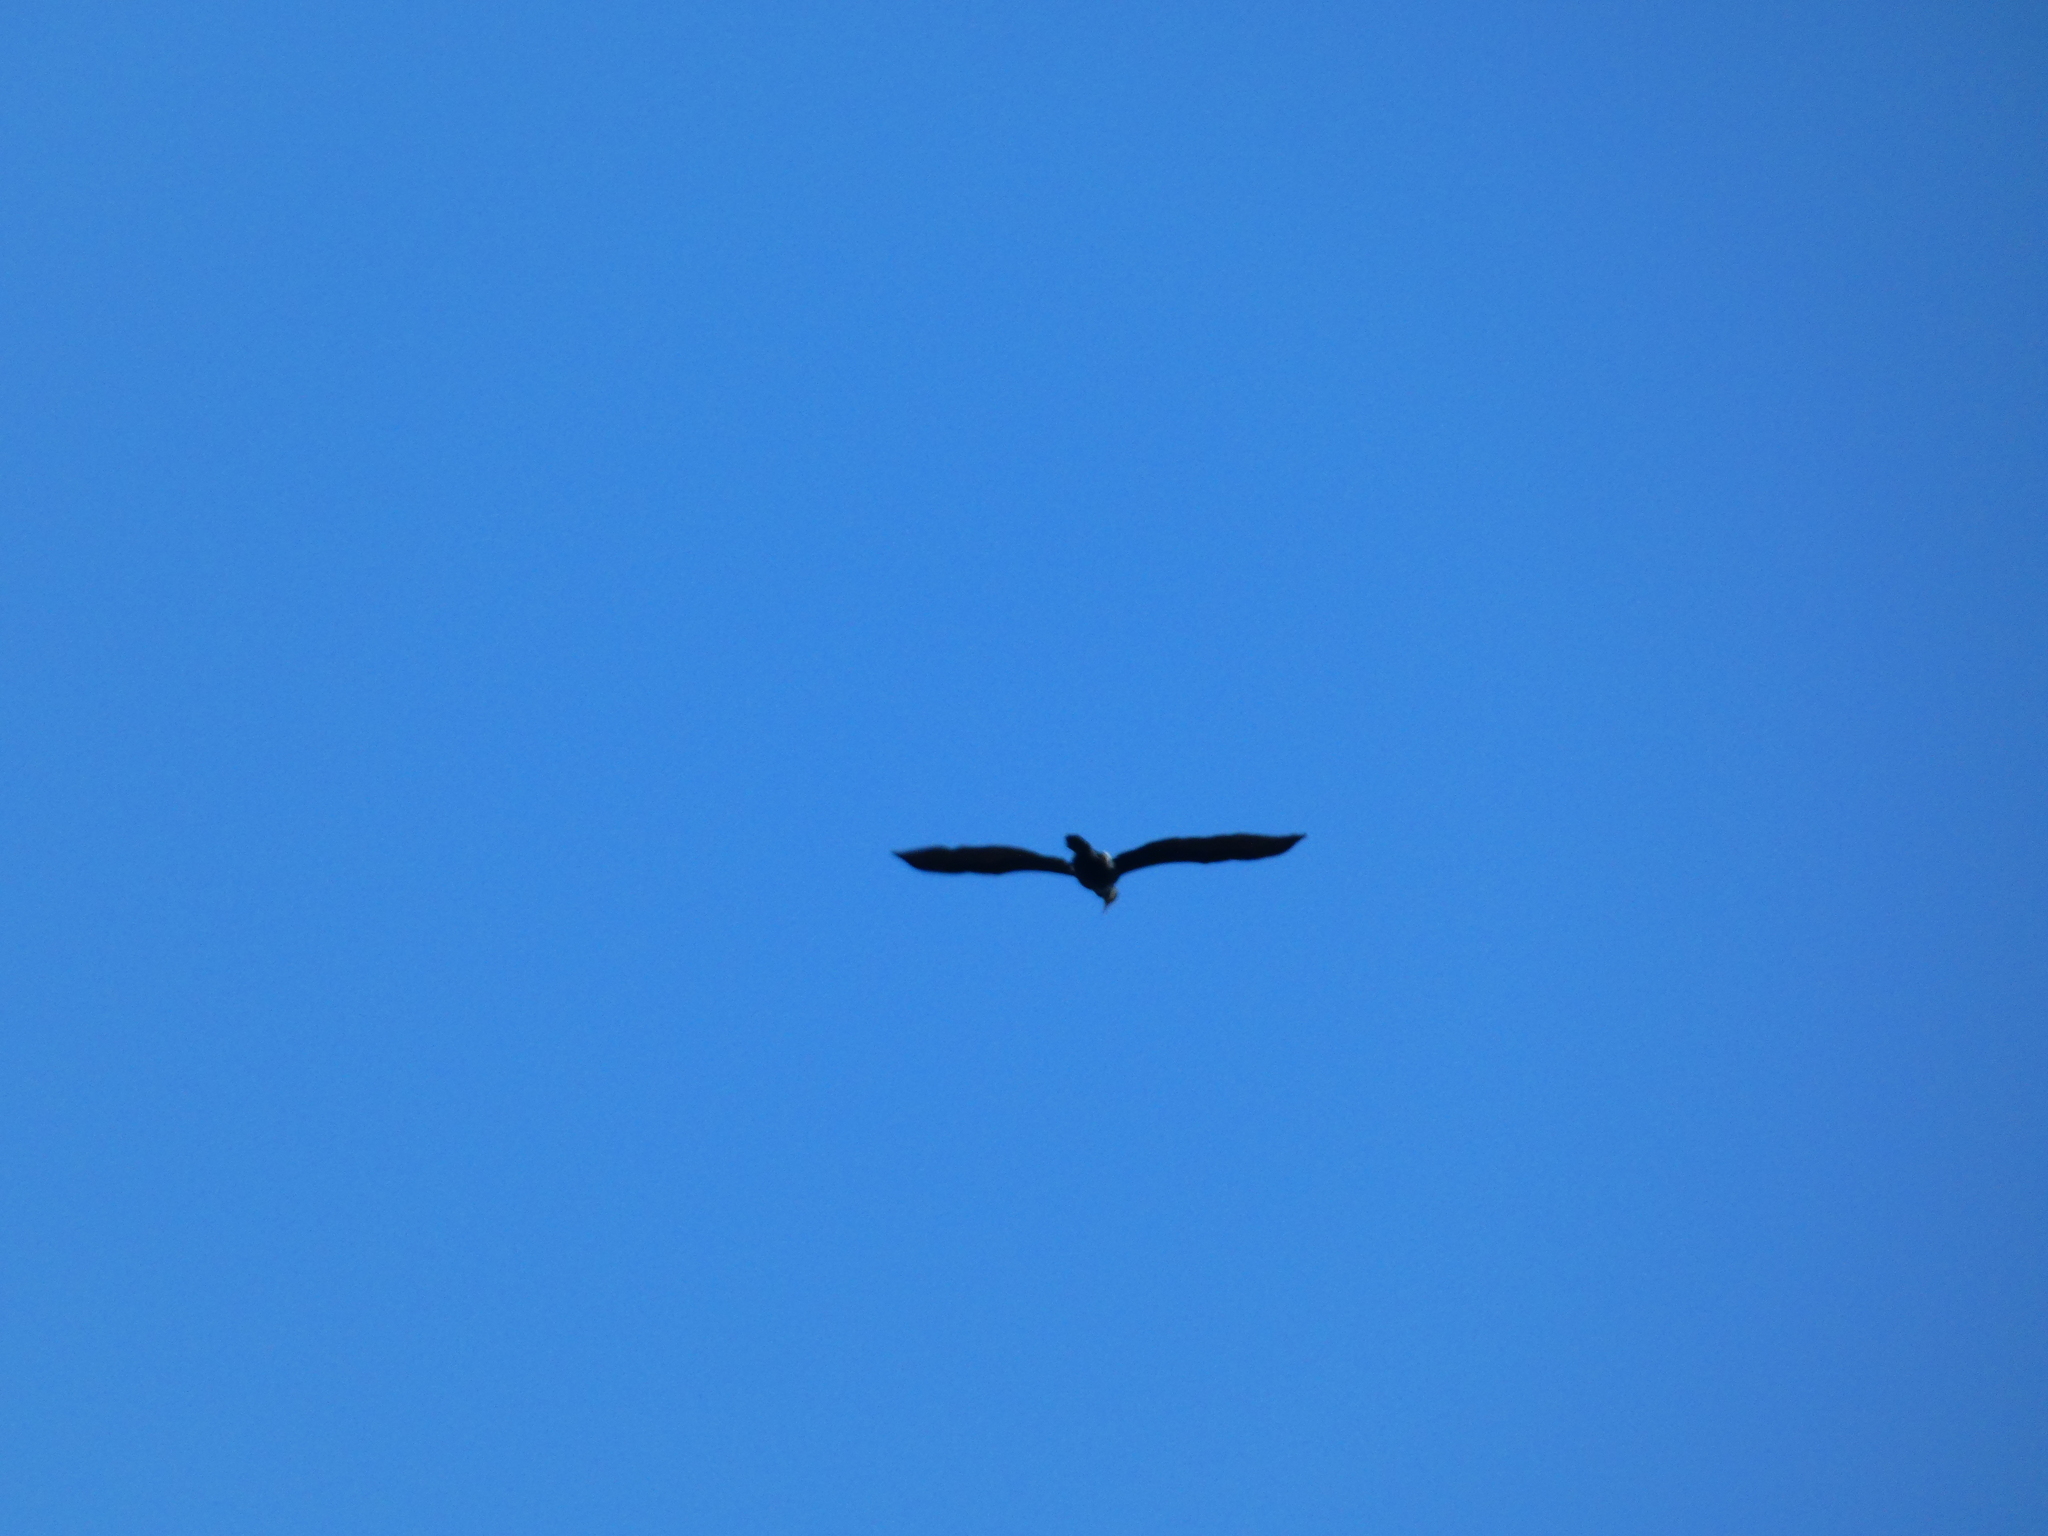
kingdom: Animalia
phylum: Chordata
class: Aves
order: Suliformes
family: Phalacrocoracidae
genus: Phalacrocorax
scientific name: Phalacrocorax carbo
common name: Great cormorant
